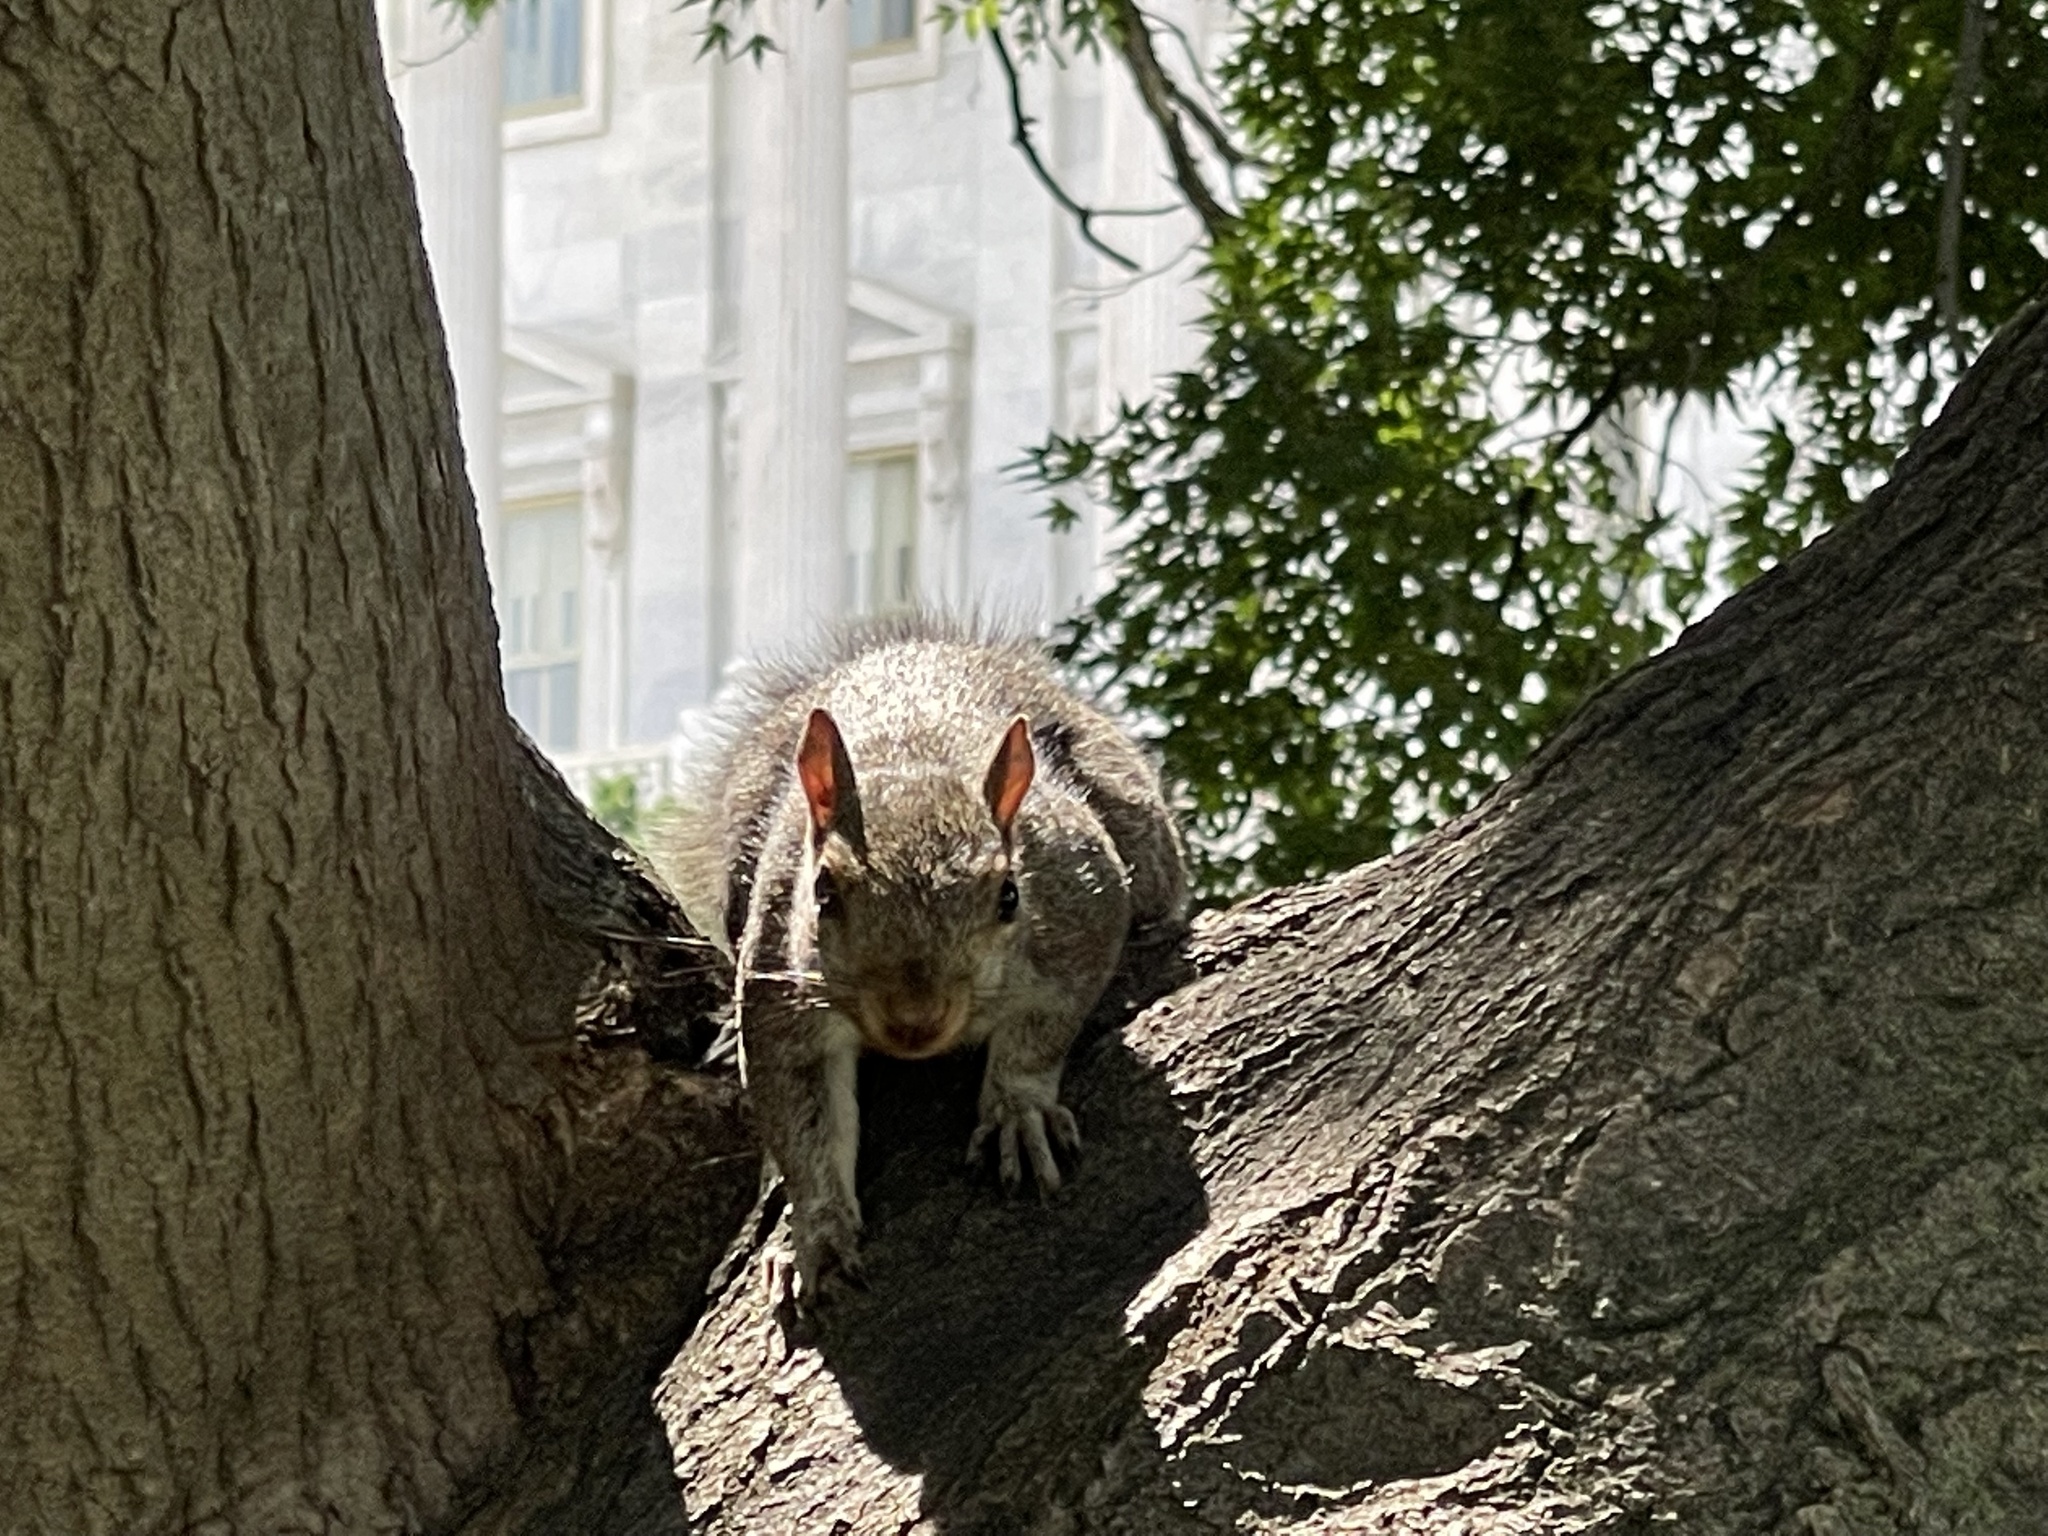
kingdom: Animalia
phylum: Chordata
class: Mammalia
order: Rodentia
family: Sciuridae
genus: Sciurus
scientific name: Sciurus carolinensis
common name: Eastern gray squirrel
